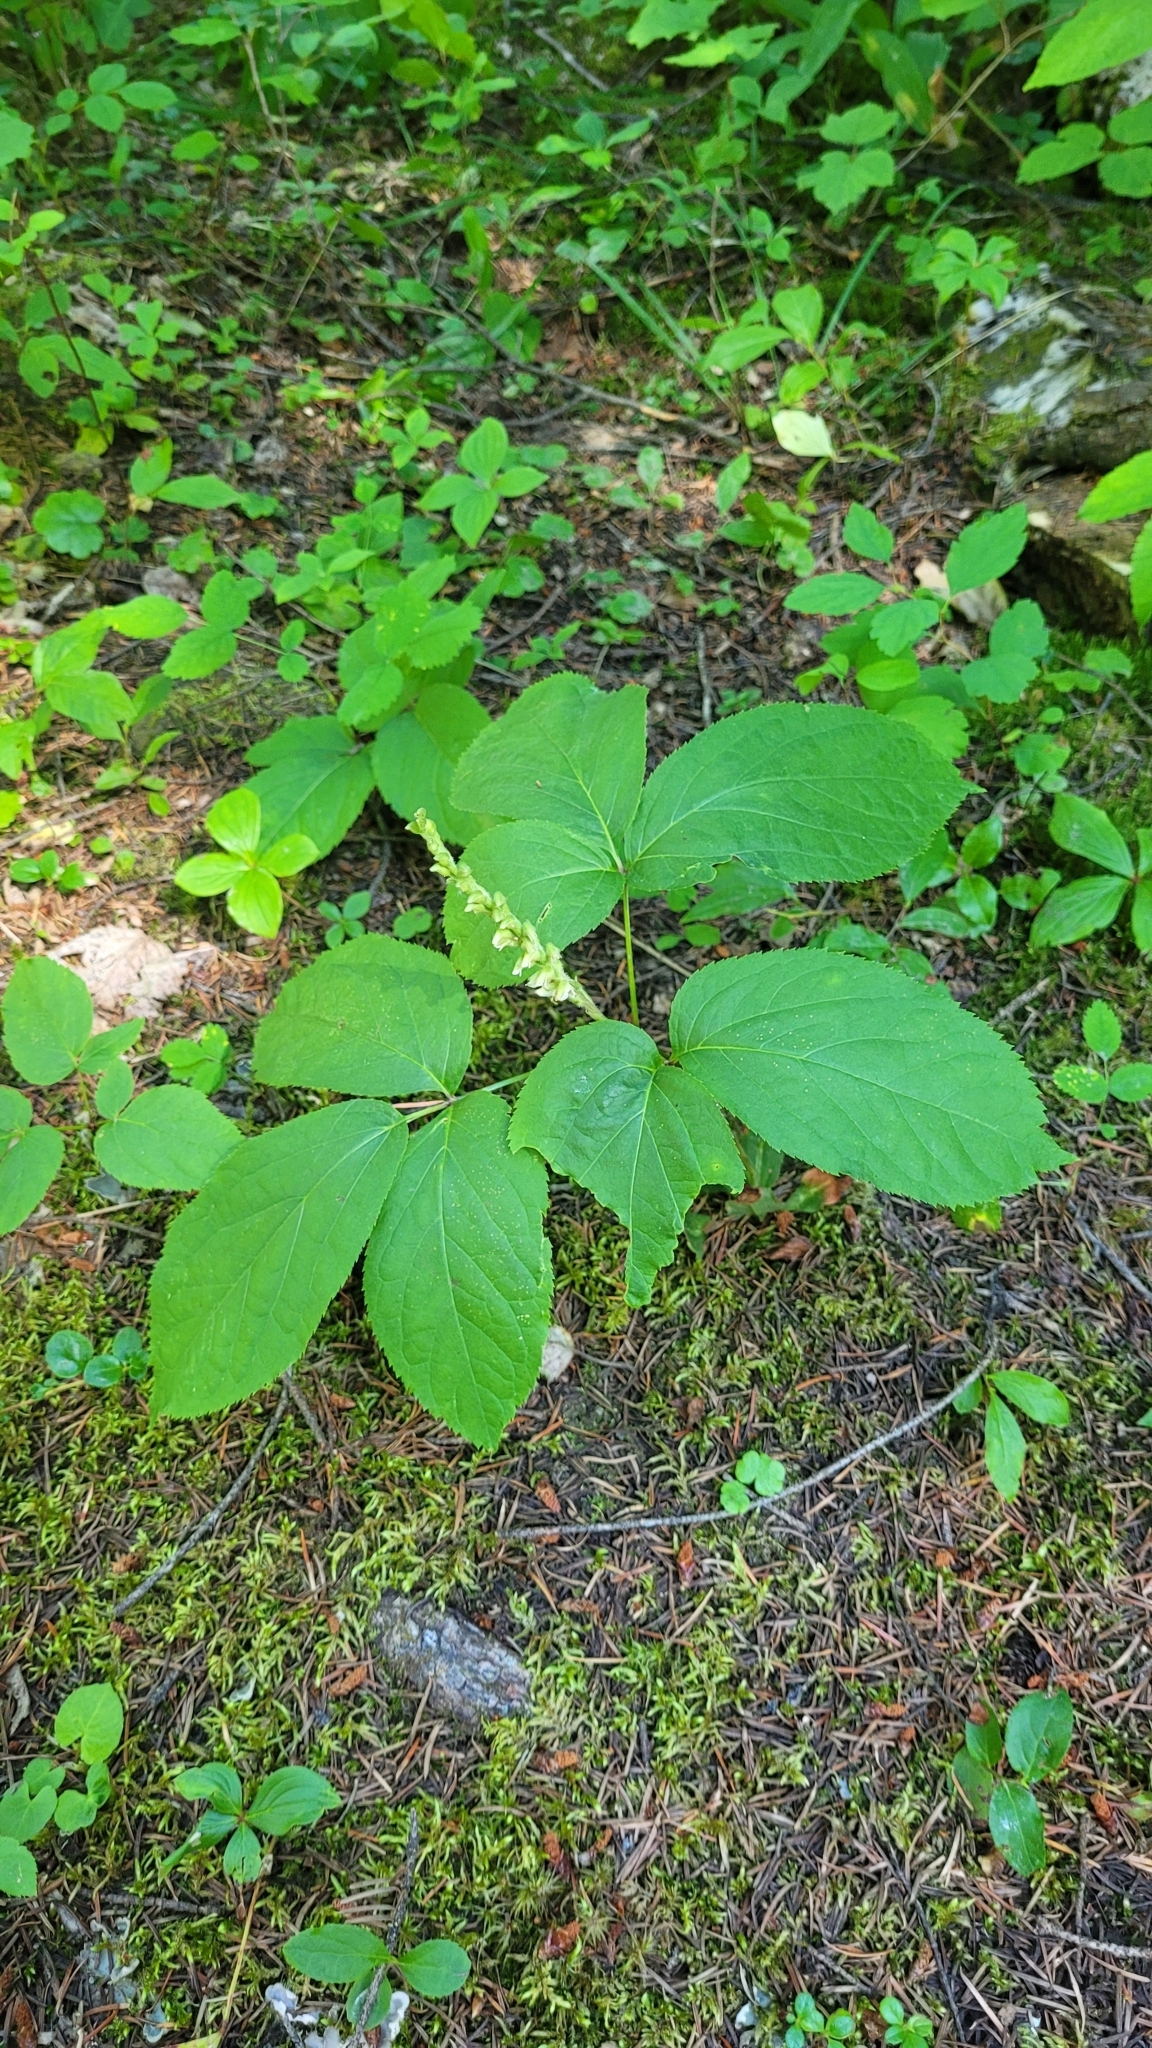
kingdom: Plantae
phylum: Tracheophyta
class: Magnoliopsida
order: Apiales
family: Araliaceae
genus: Aralia
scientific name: Aralia nudicaulis
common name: Wild sarsaparilla
